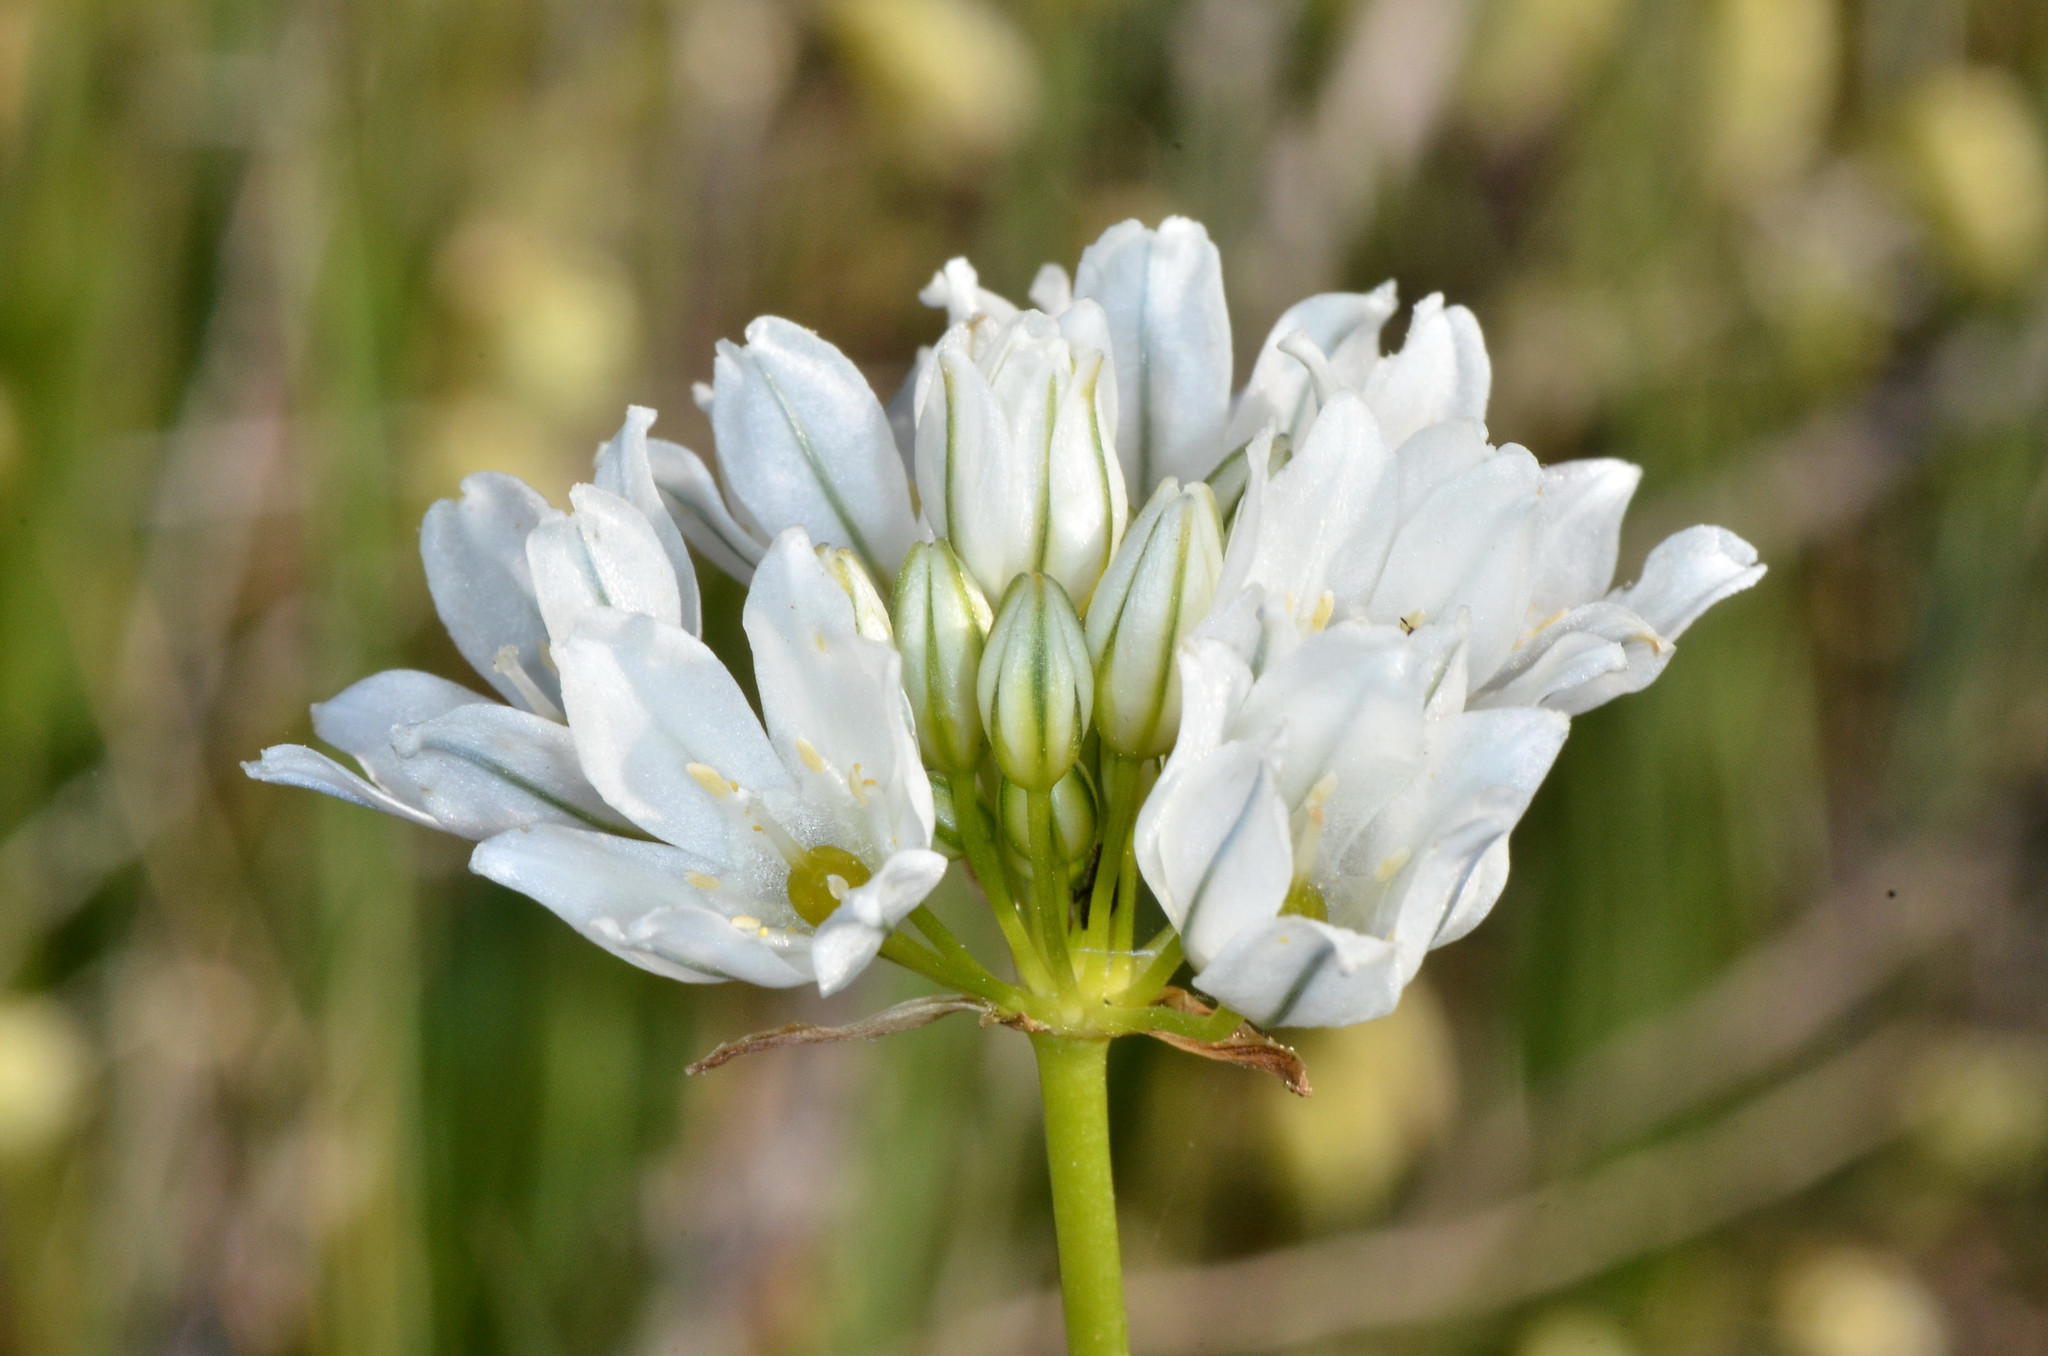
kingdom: Plantae
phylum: Tracheophyta
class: Liliopsida
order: Asparagales
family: Asparagaceae
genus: Triteleia
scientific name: Triteleia hyacinthina
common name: White brodiaea
